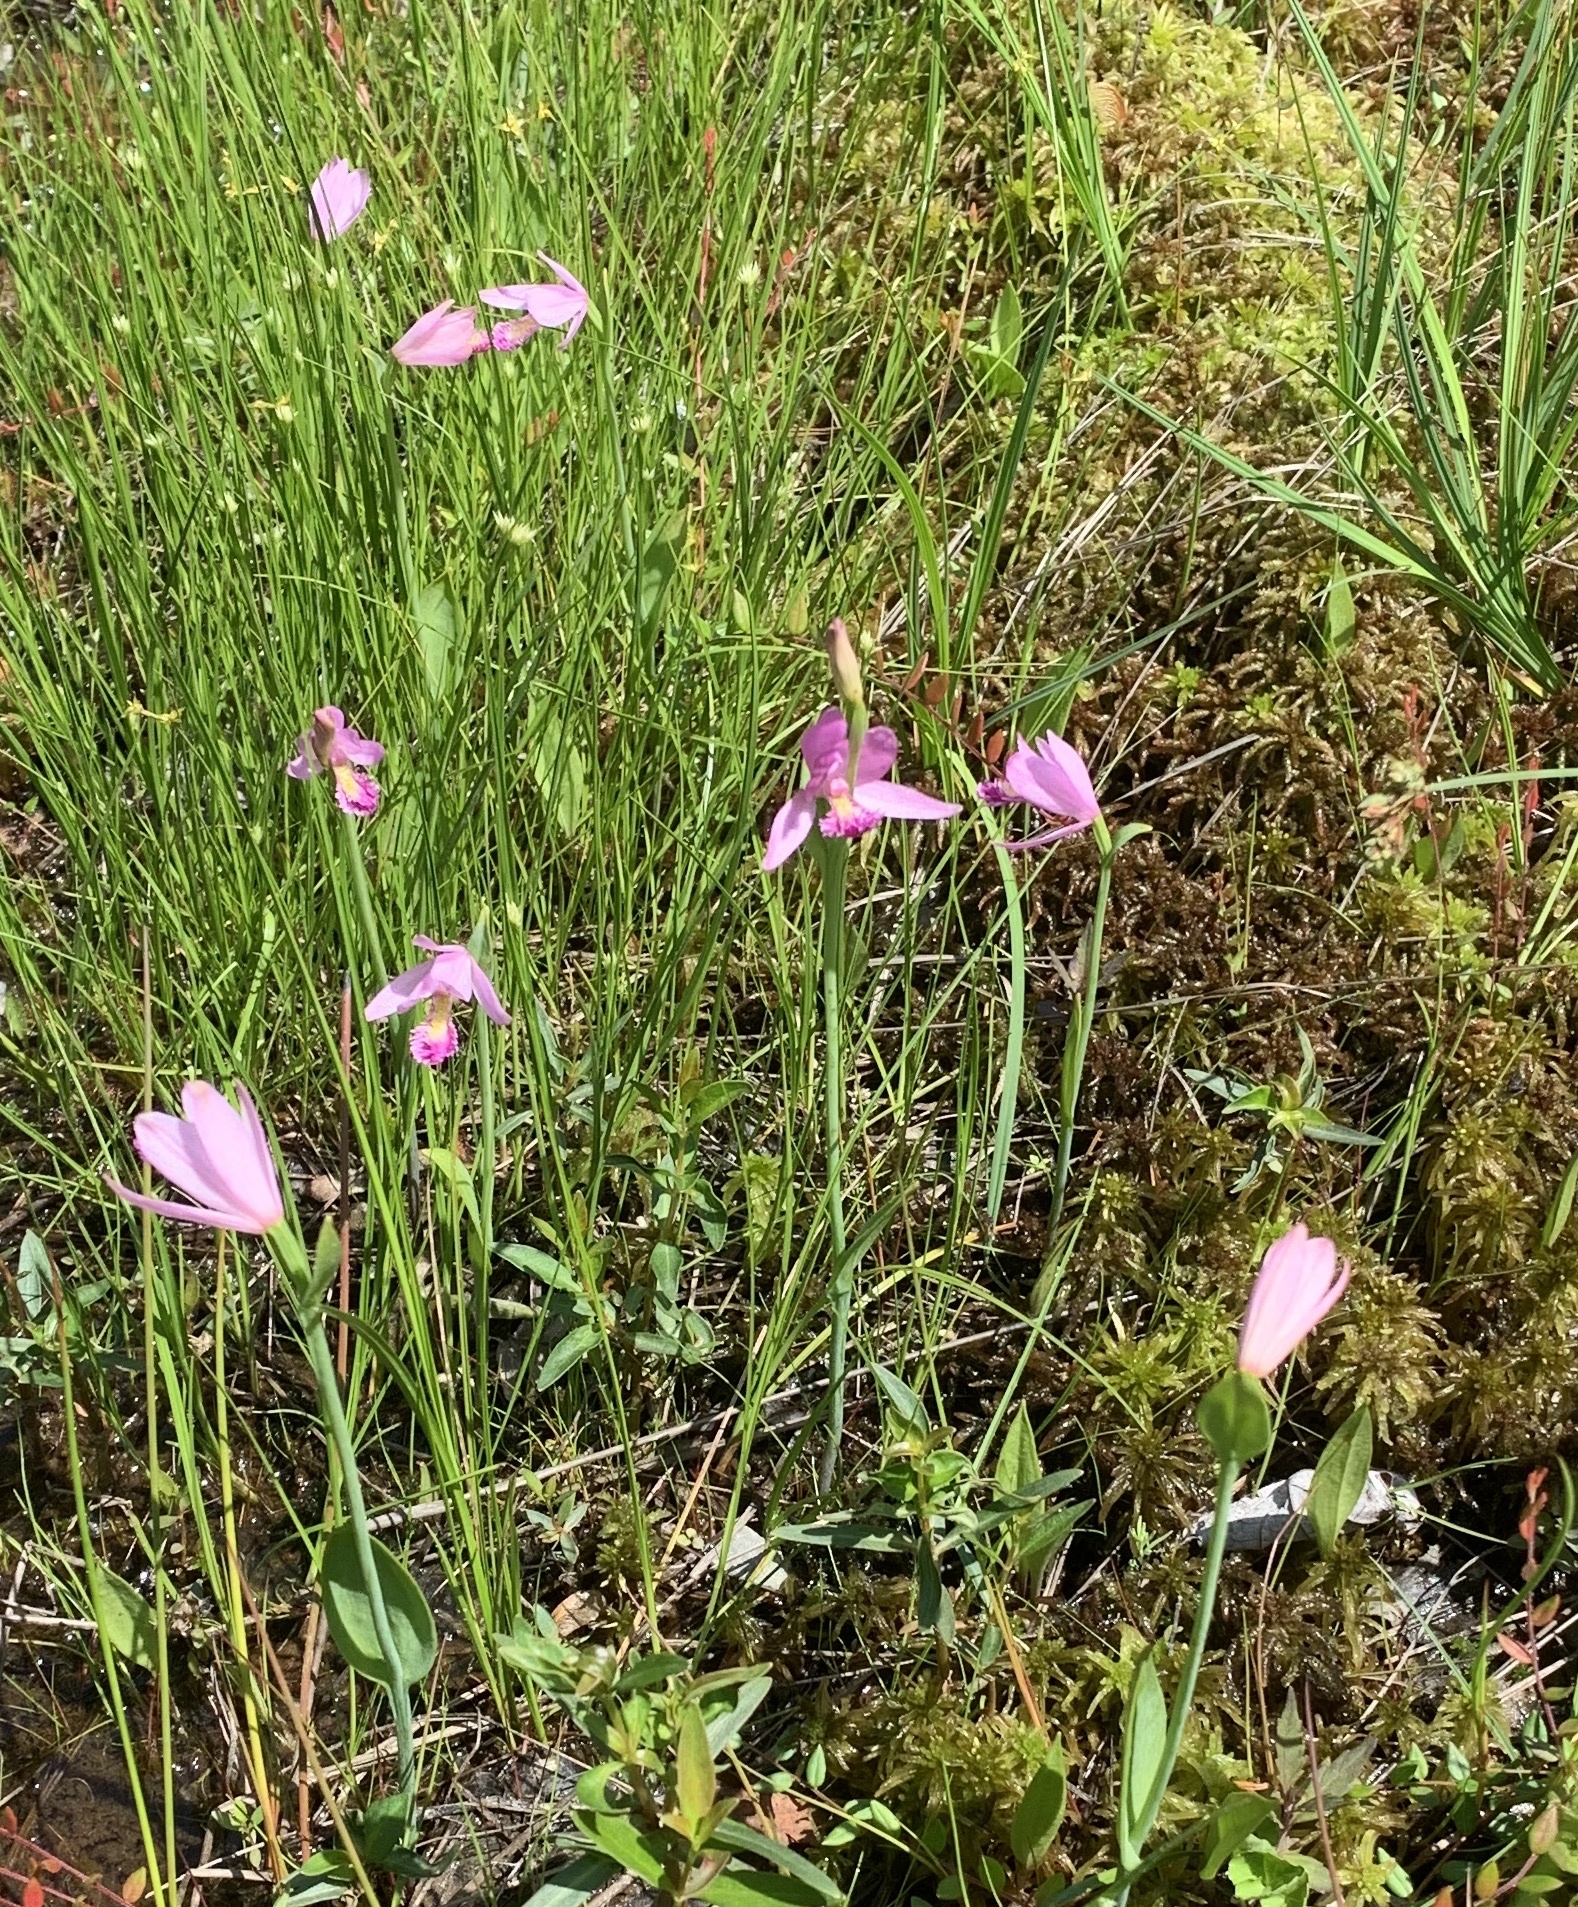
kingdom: Plantae
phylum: Tracheophyta
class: Liliopsida
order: Asparagales
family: Orchidaceae
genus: Pogonia
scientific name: Pogonia ophioglossoides
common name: Rose pogonia
